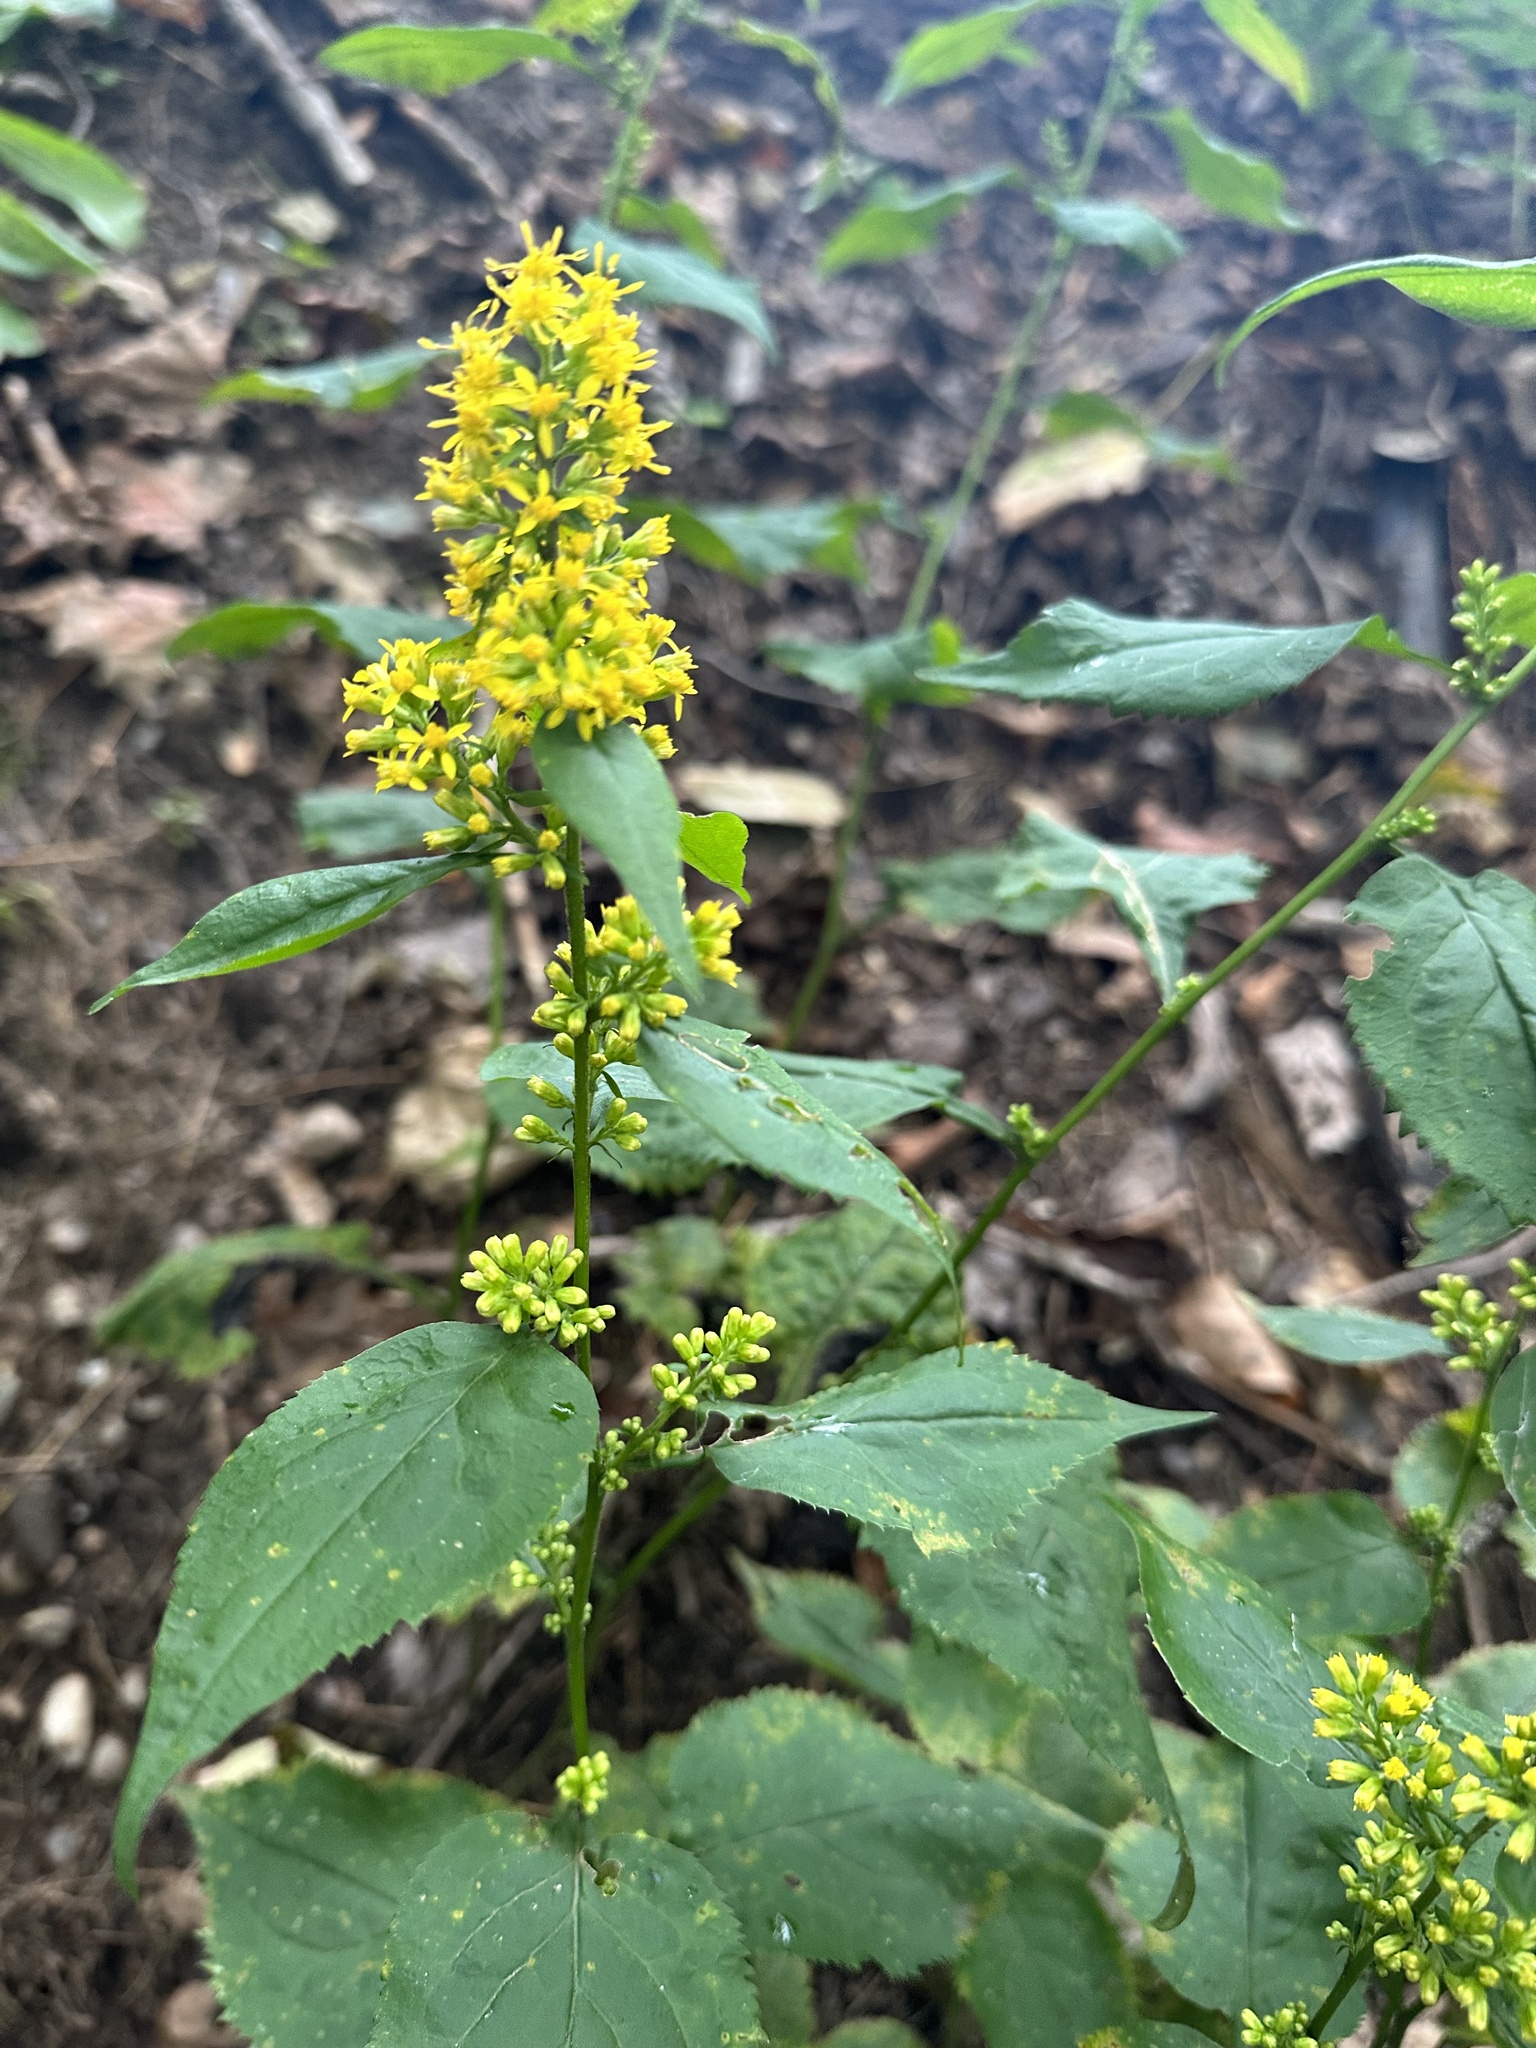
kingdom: Plantae
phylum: Tracheophyta
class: Magnoliopsida
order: Asterales
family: Asteraceae
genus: Solidago
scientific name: Solidago flexicaulis
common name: Zig-zag goldenrod
